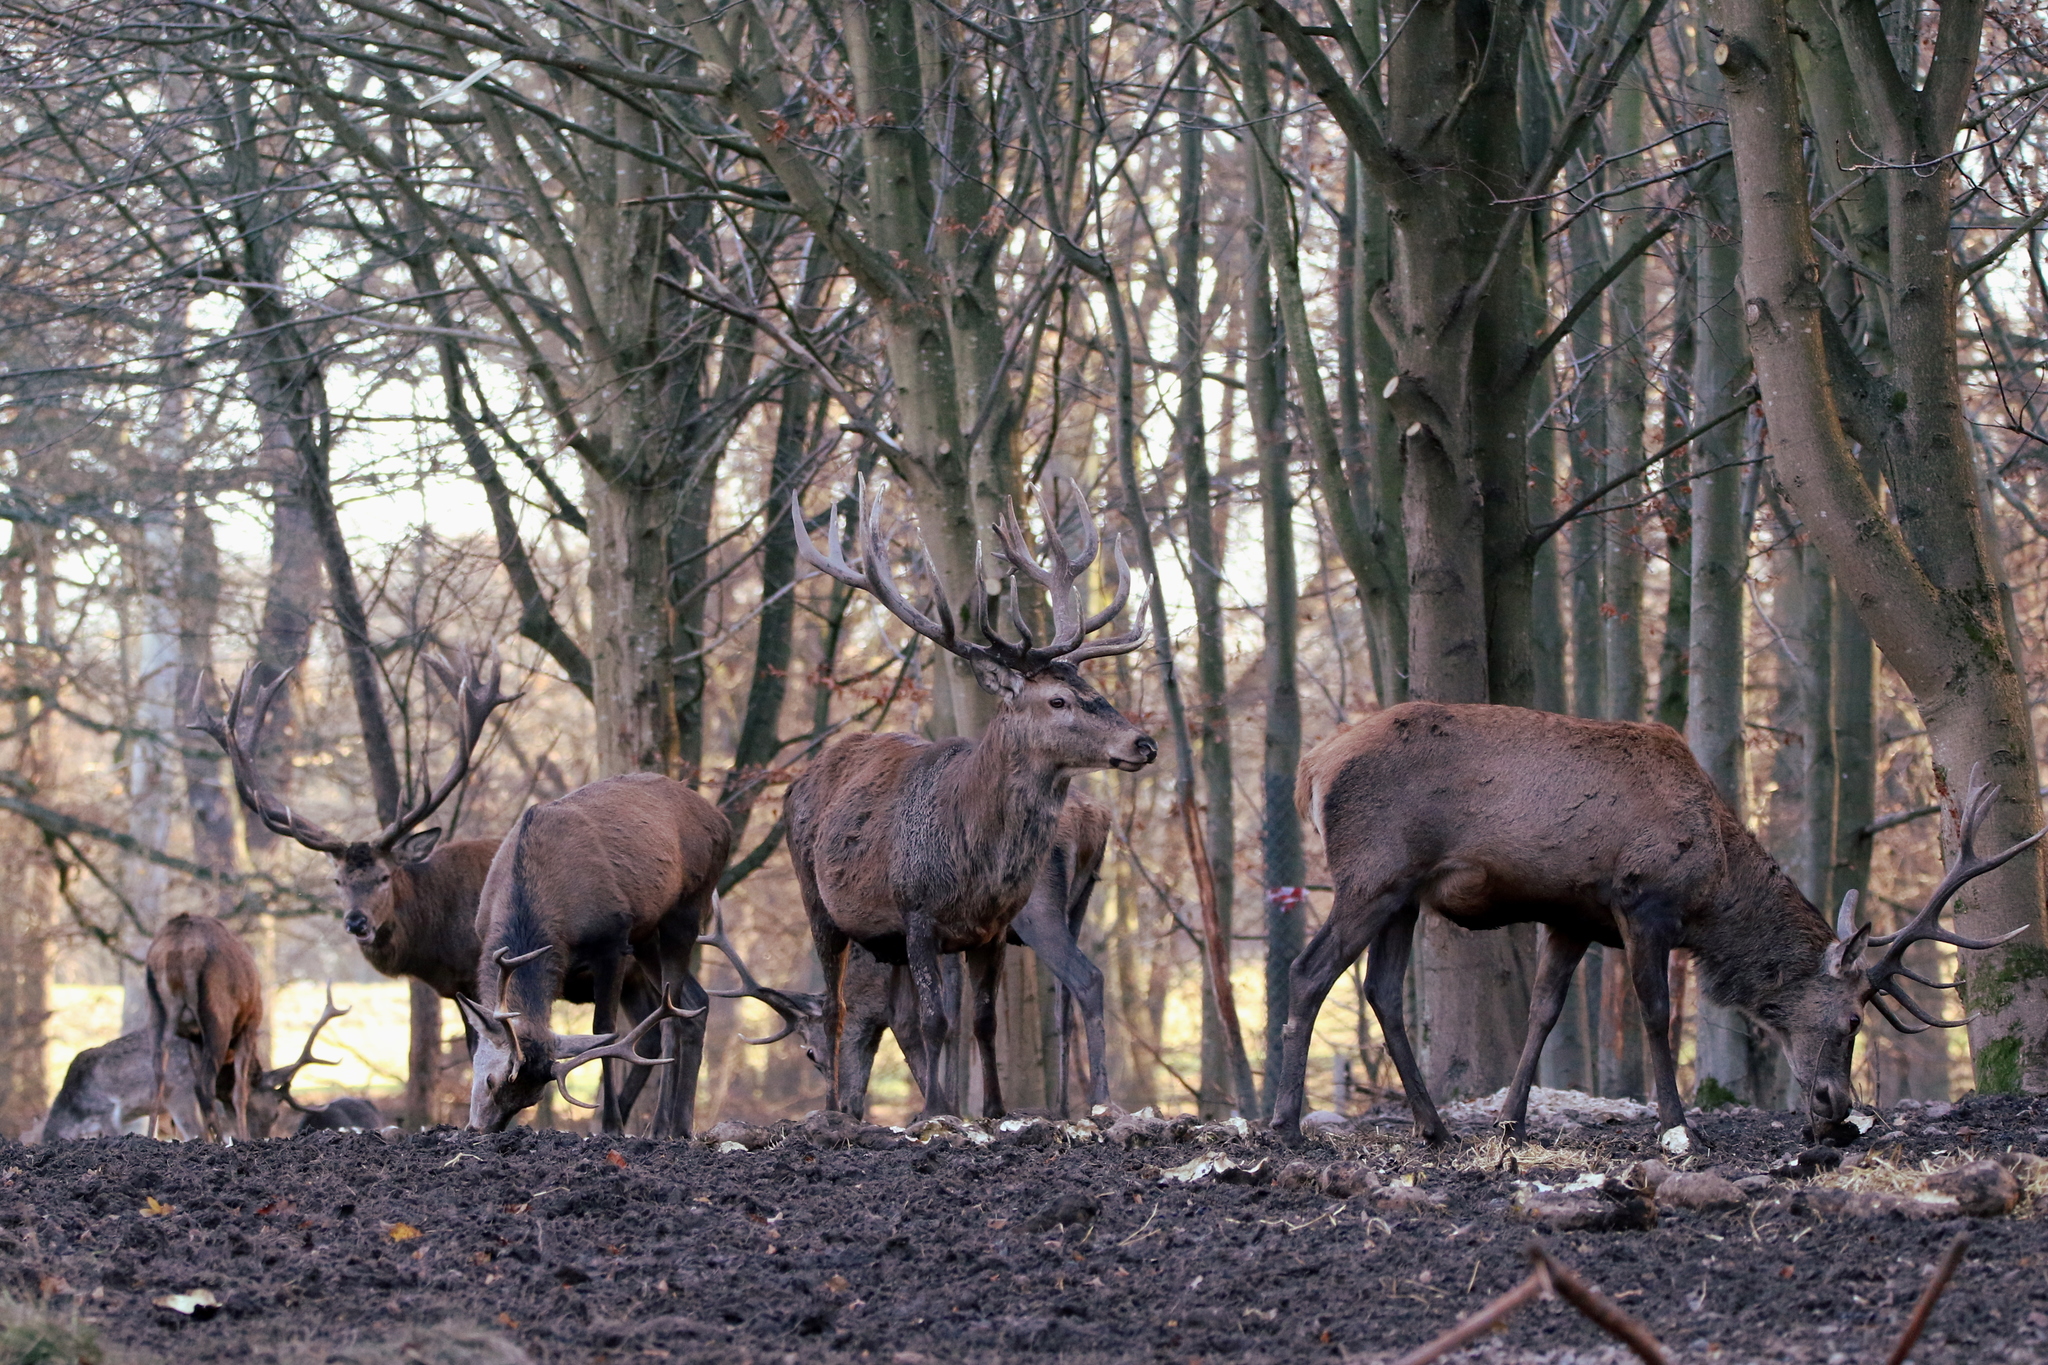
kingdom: Animalia
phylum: Chordata
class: Mammalia
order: Artiodactyla
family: Cervidae
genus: Cervus
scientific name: Cervus elaphus
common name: Red deer
